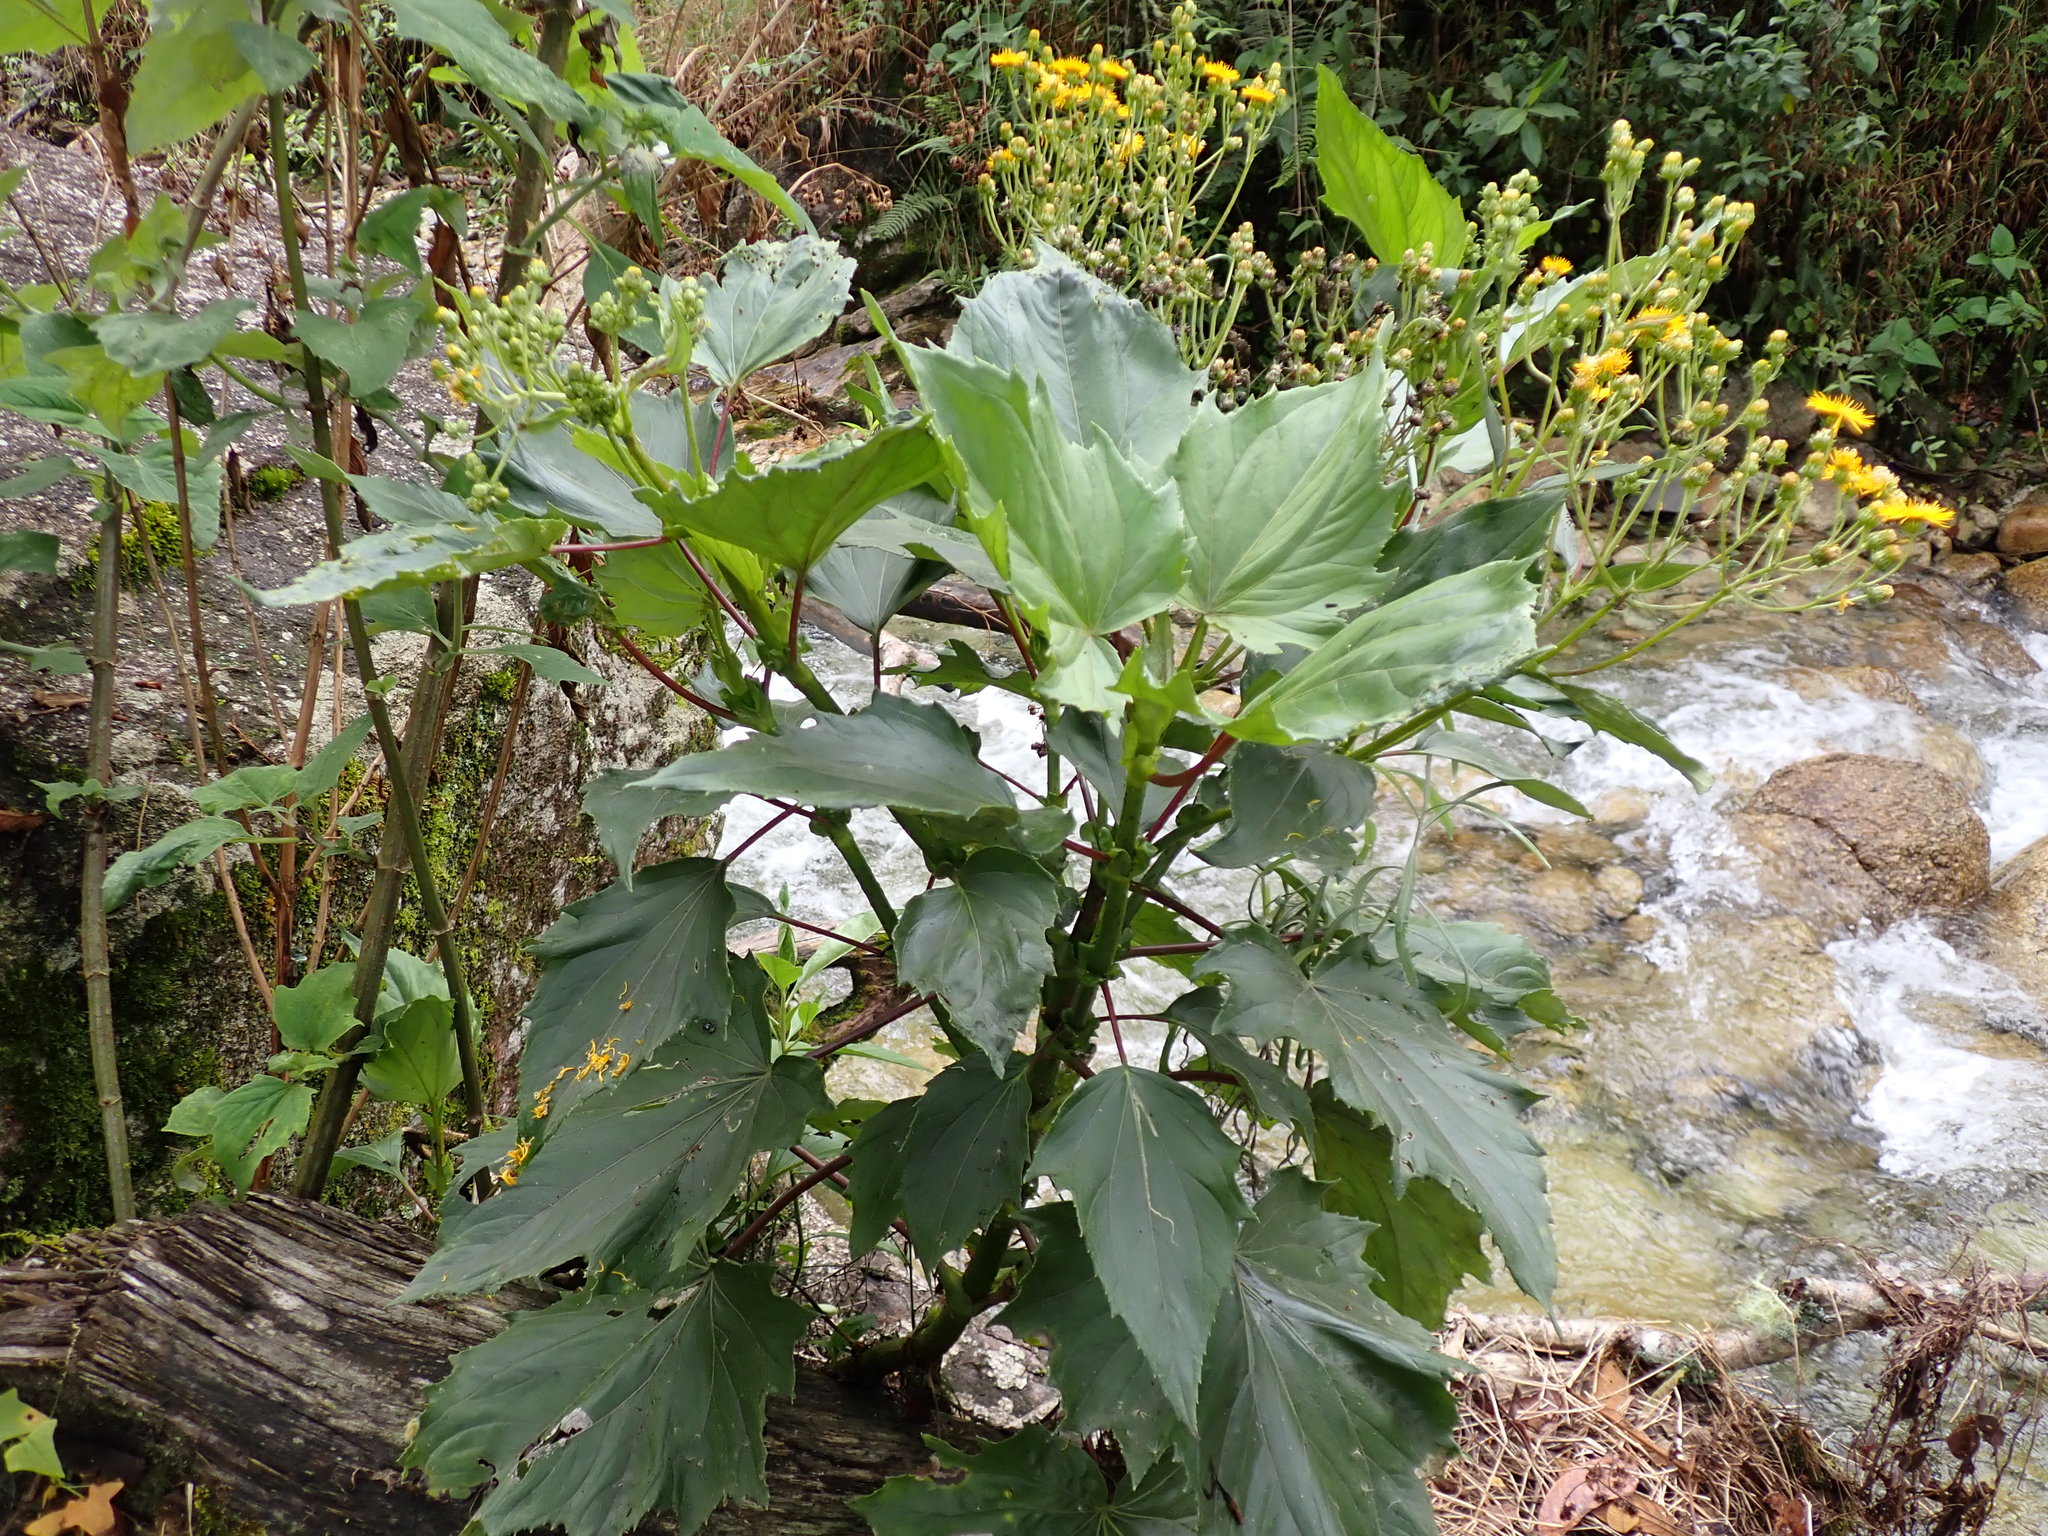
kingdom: Plantae
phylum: Tracheophyta
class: Magnoliopsida
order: Asterales
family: Asteraceae
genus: Erato
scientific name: Erato polymnioides
